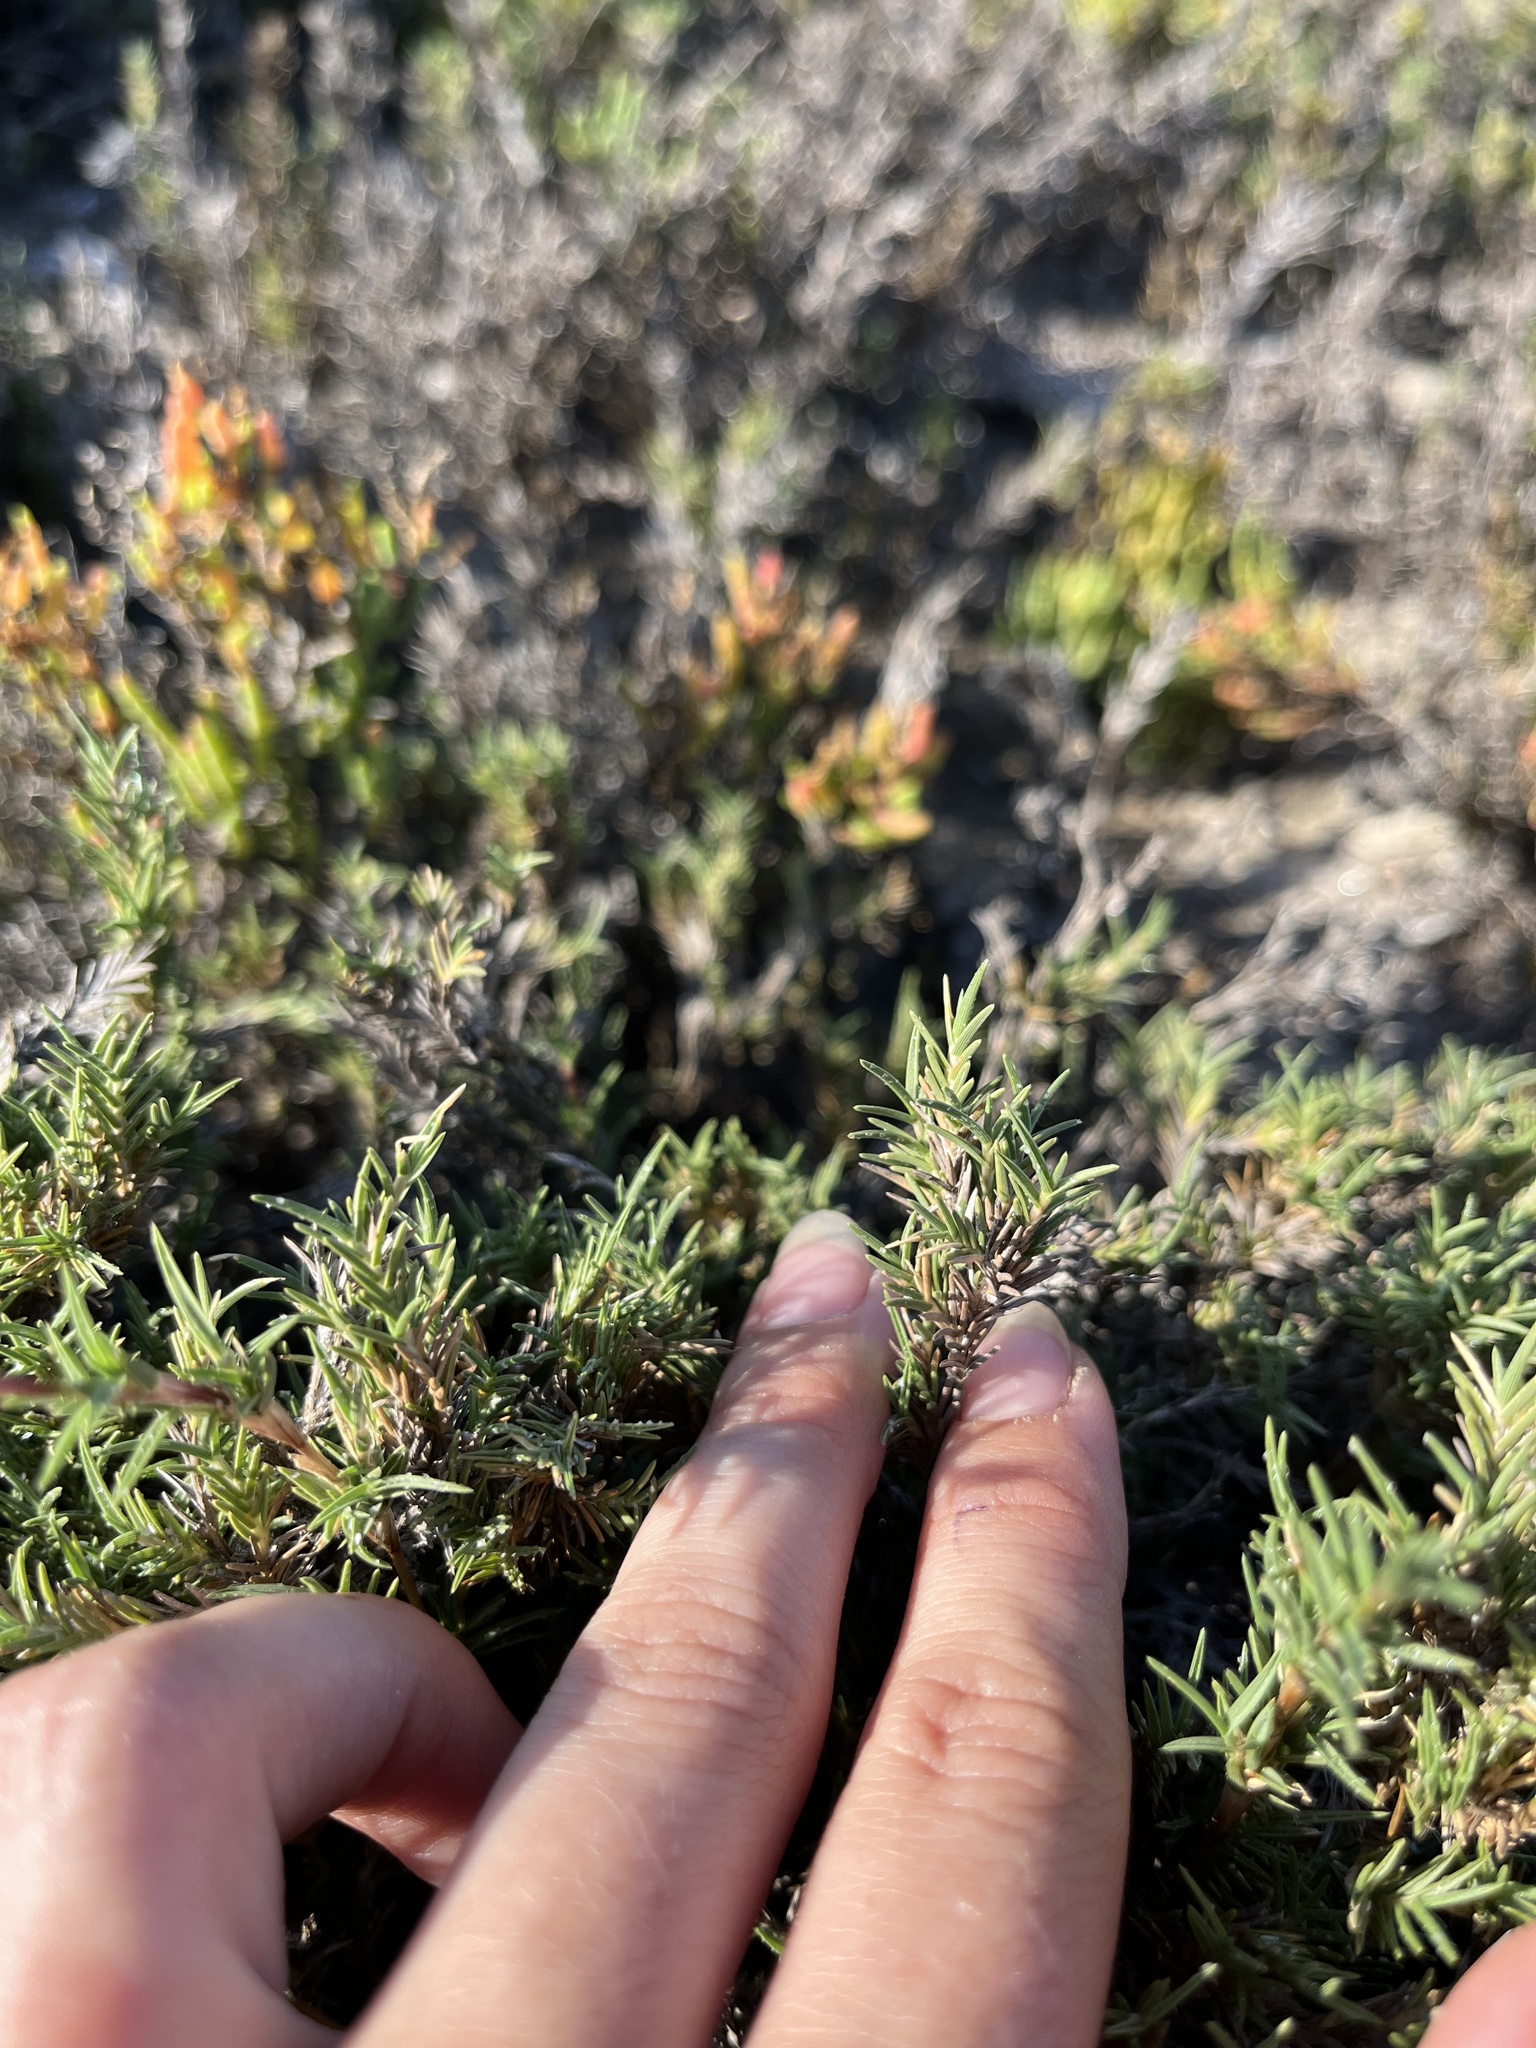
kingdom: Plantae
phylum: Tracheophyta
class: Liliopsida
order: Poales
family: Poaceae
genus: Distichlis
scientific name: Distichlis littoralis
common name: Shore grass
